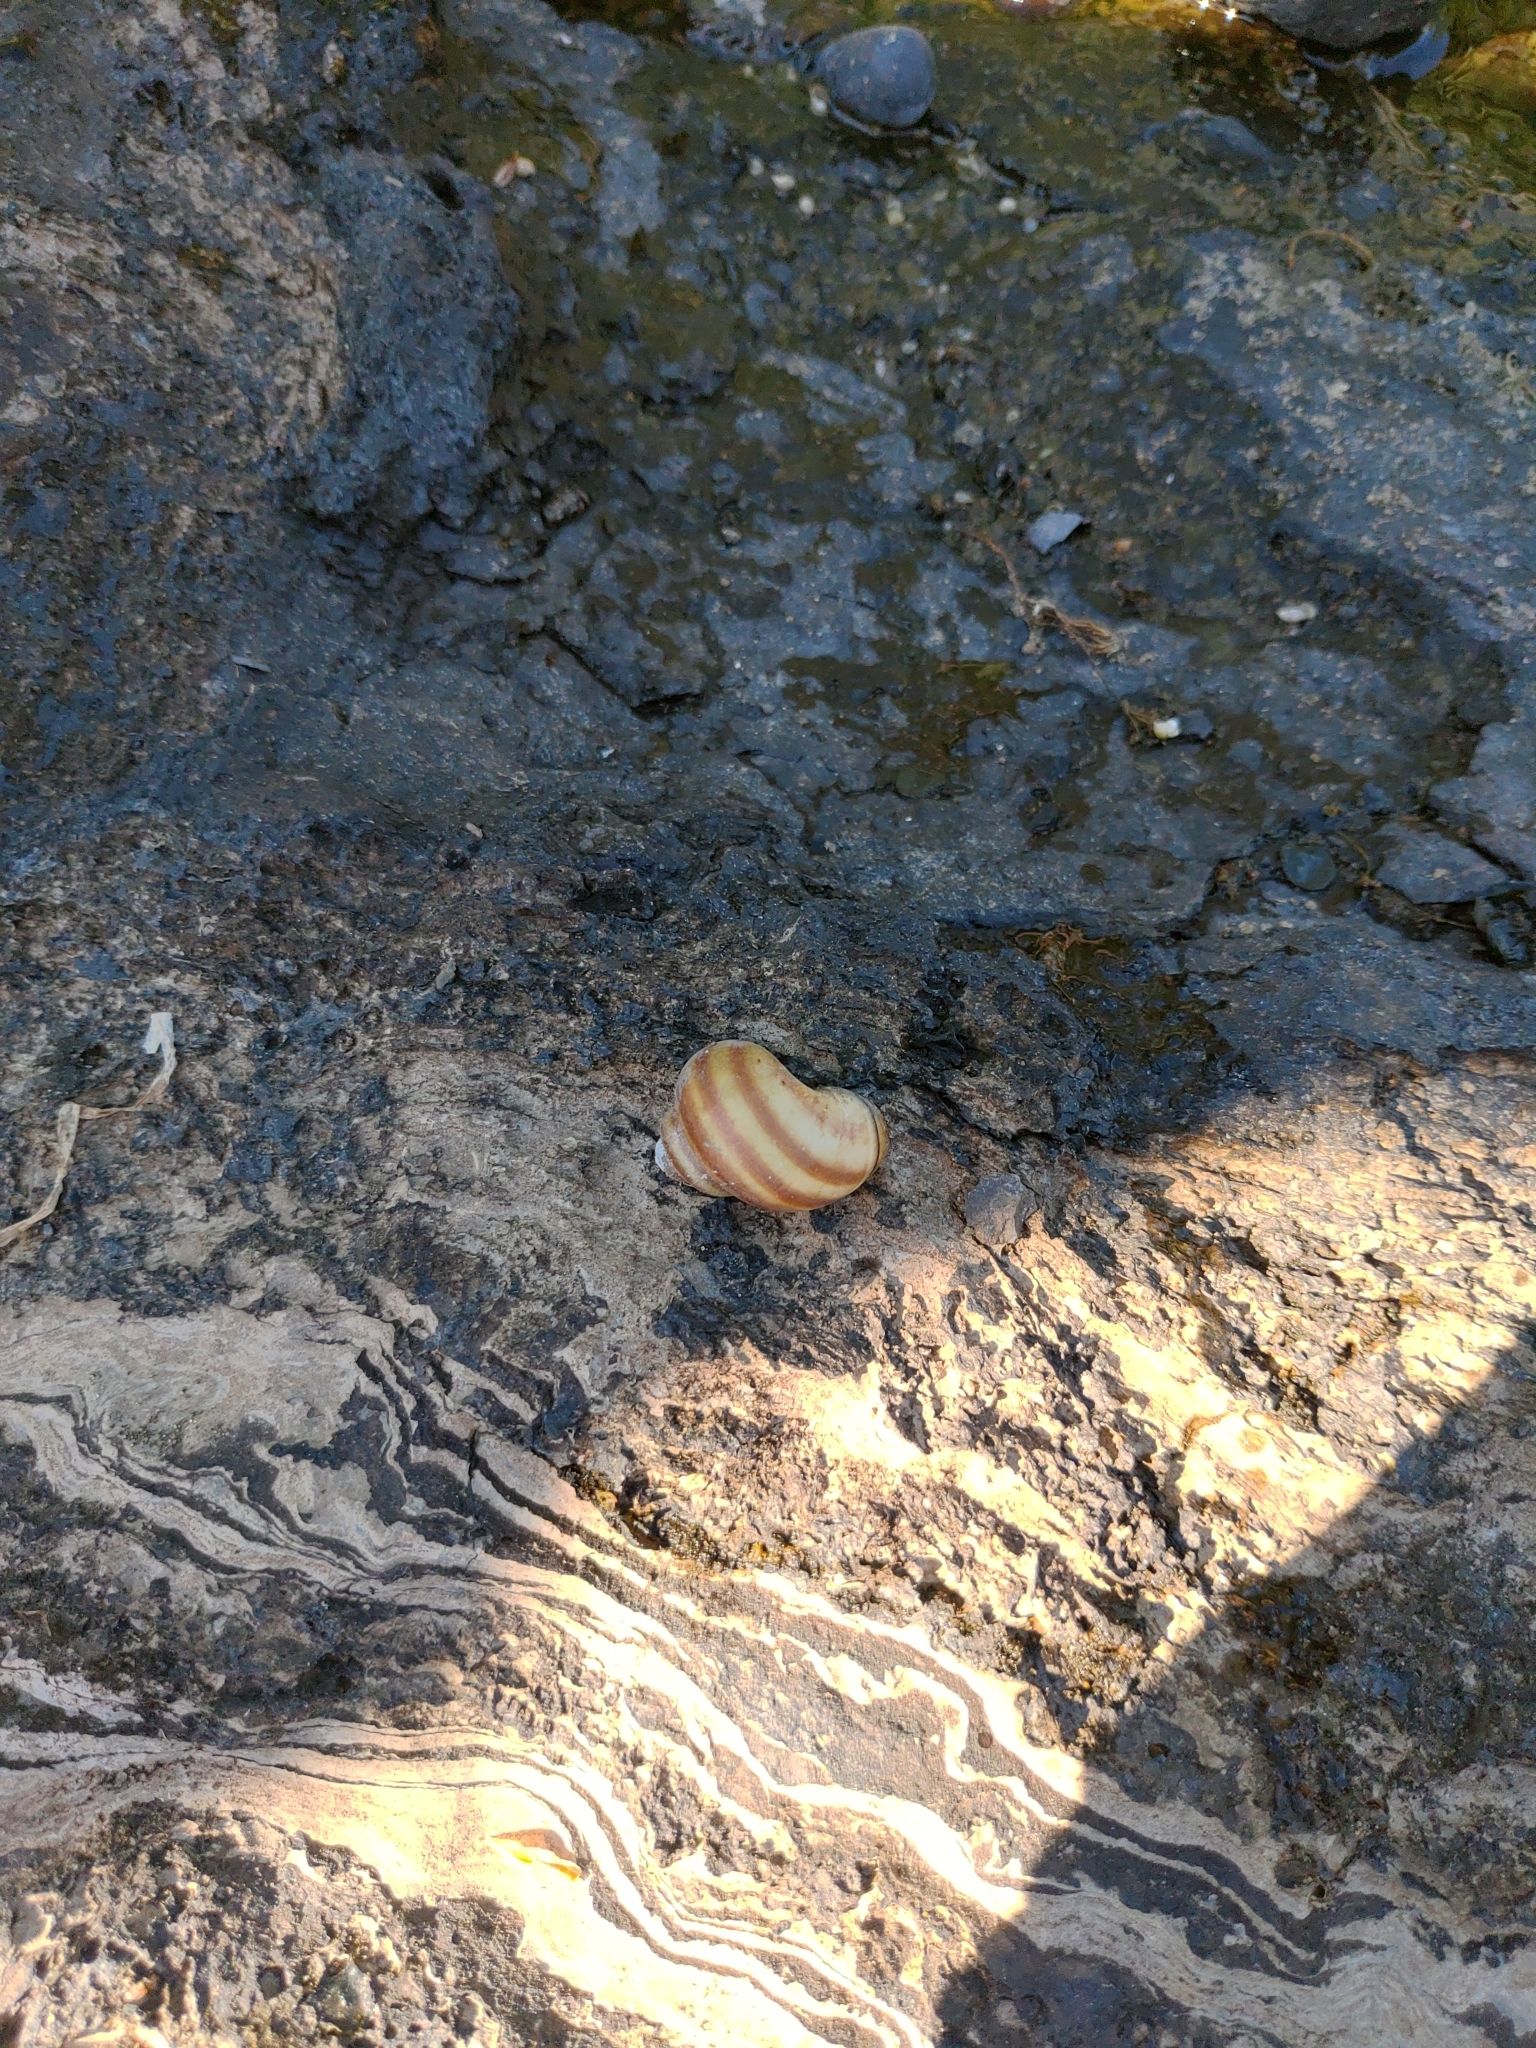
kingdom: Animalia
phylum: Mollusca
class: Gastropoda
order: Architaenioglossa
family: Viviparidae
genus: Callinina
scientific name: Callinina georgiana
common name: Banded mystery snail
